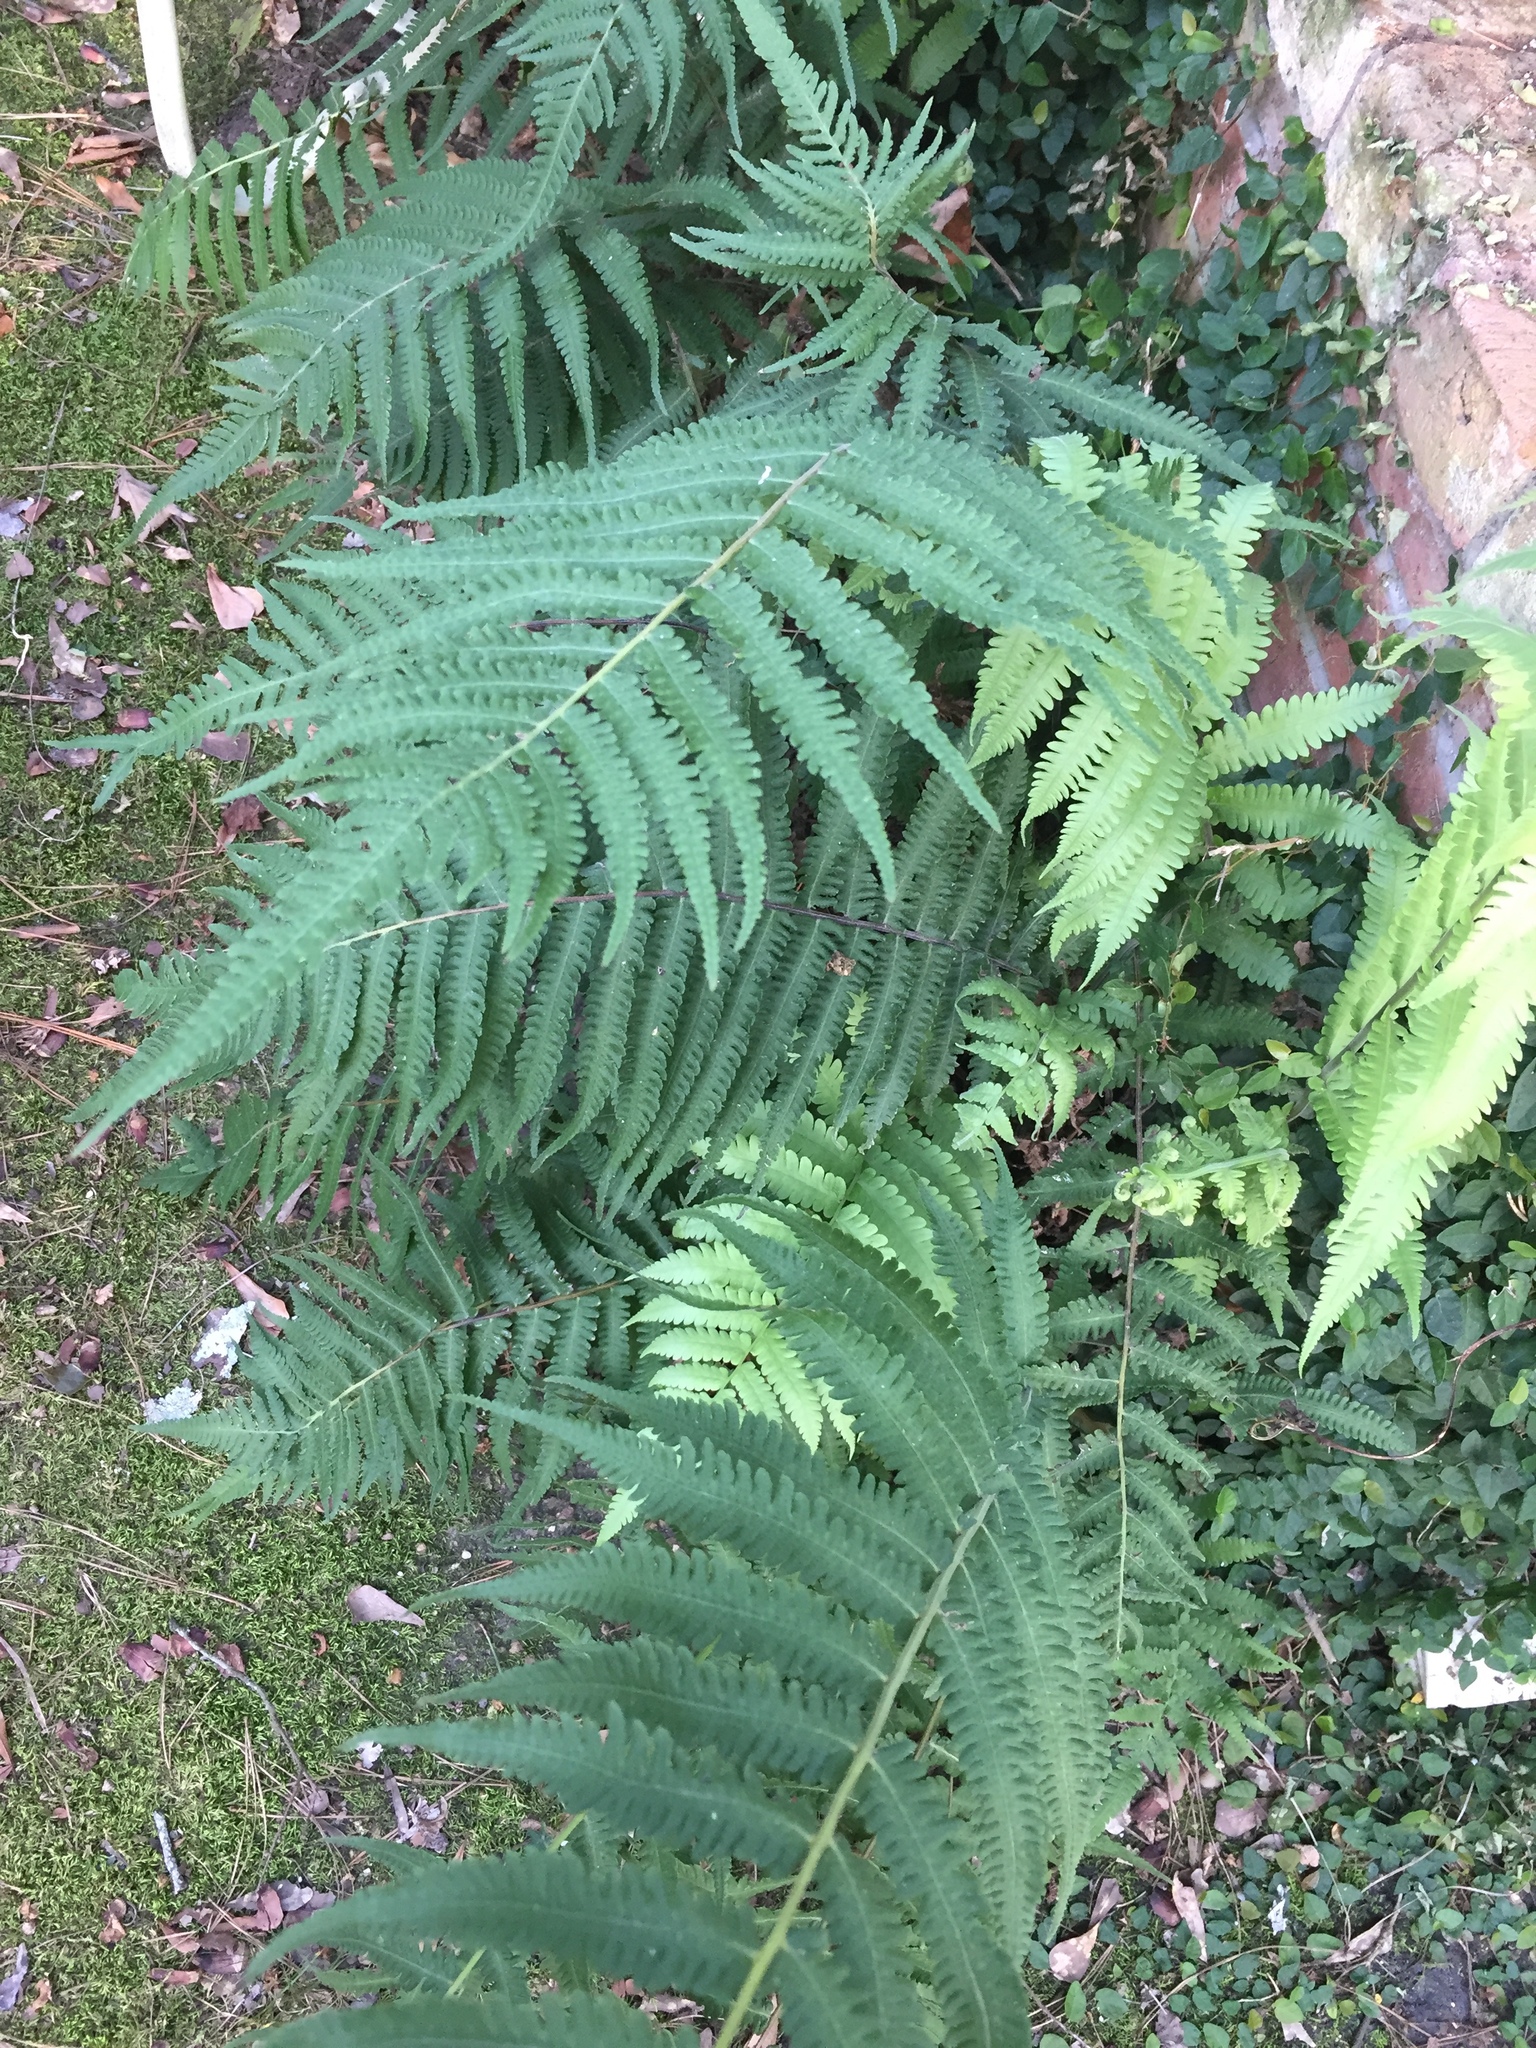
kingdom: Plantae
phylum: Tracheophyta
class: Polypodiopsida
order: Polypodiales
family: Thelypteridaceae
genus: Christella
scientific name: Christella dentata
